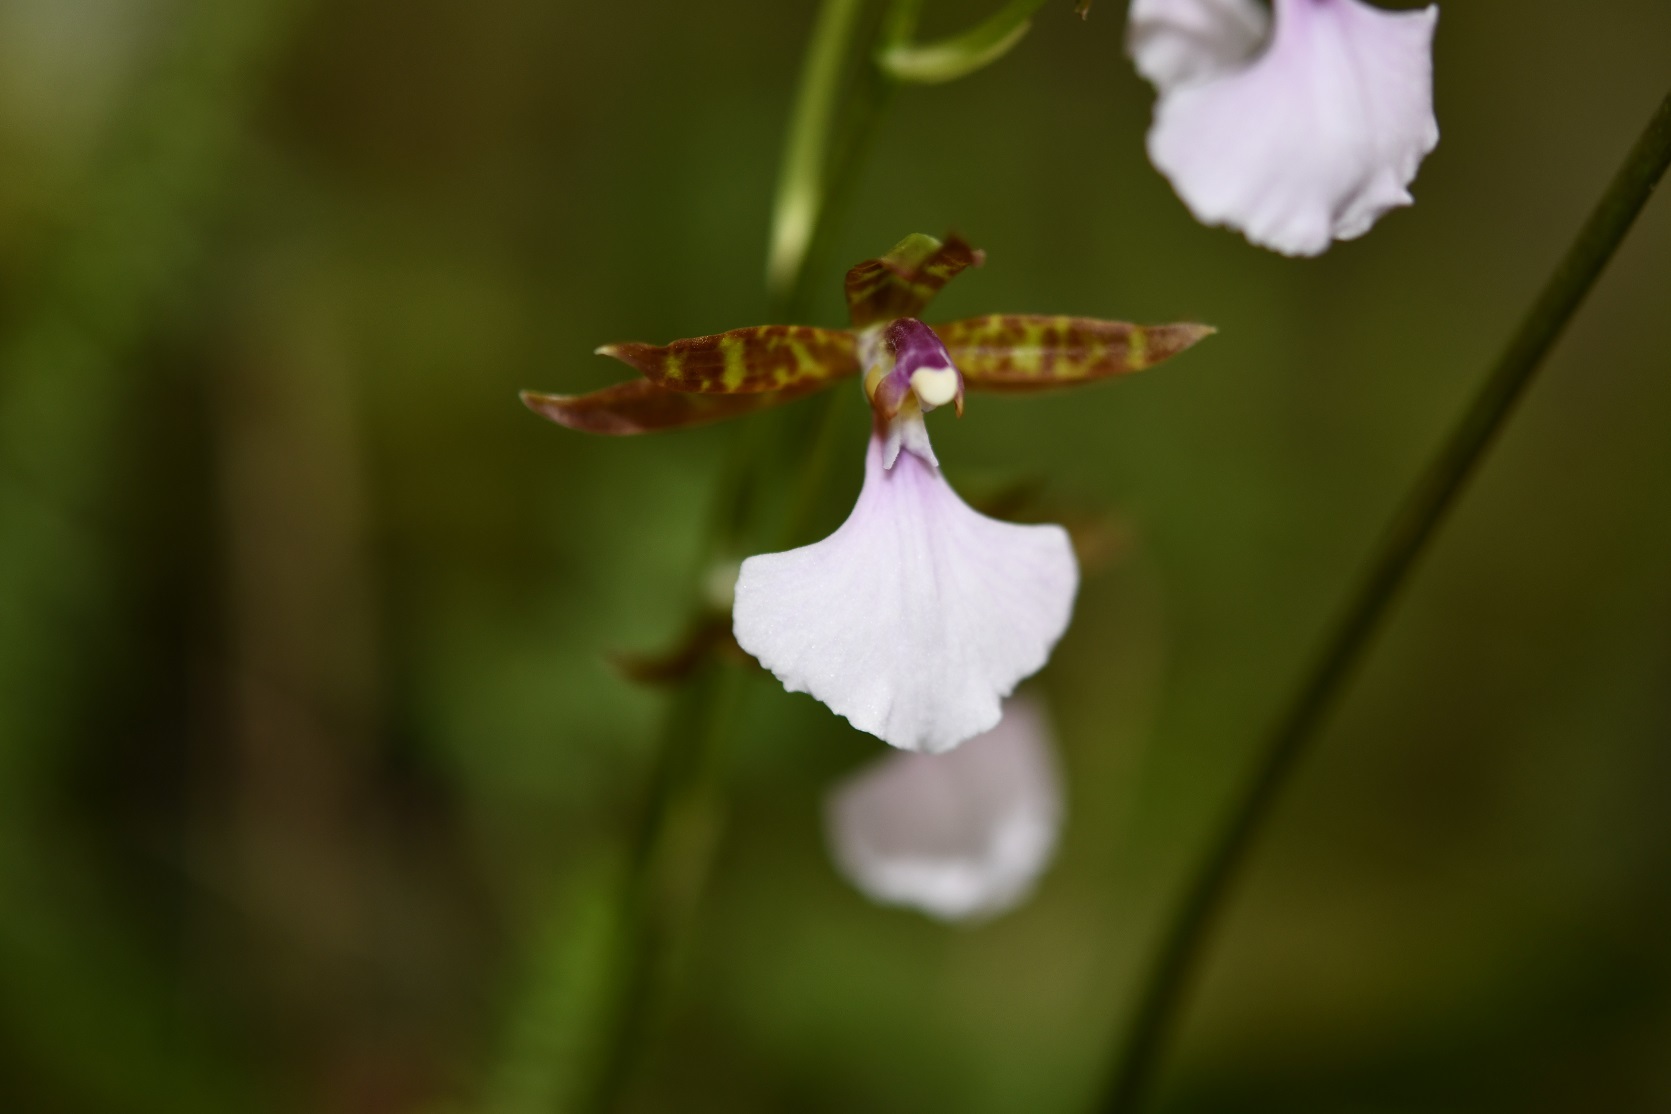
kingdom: Plantae
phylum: Tracheophyta
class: Liliopsida
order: Asparagales
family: Orchidaceae
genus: Rhynchostele
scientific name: Rhynchostele bictoniensis
